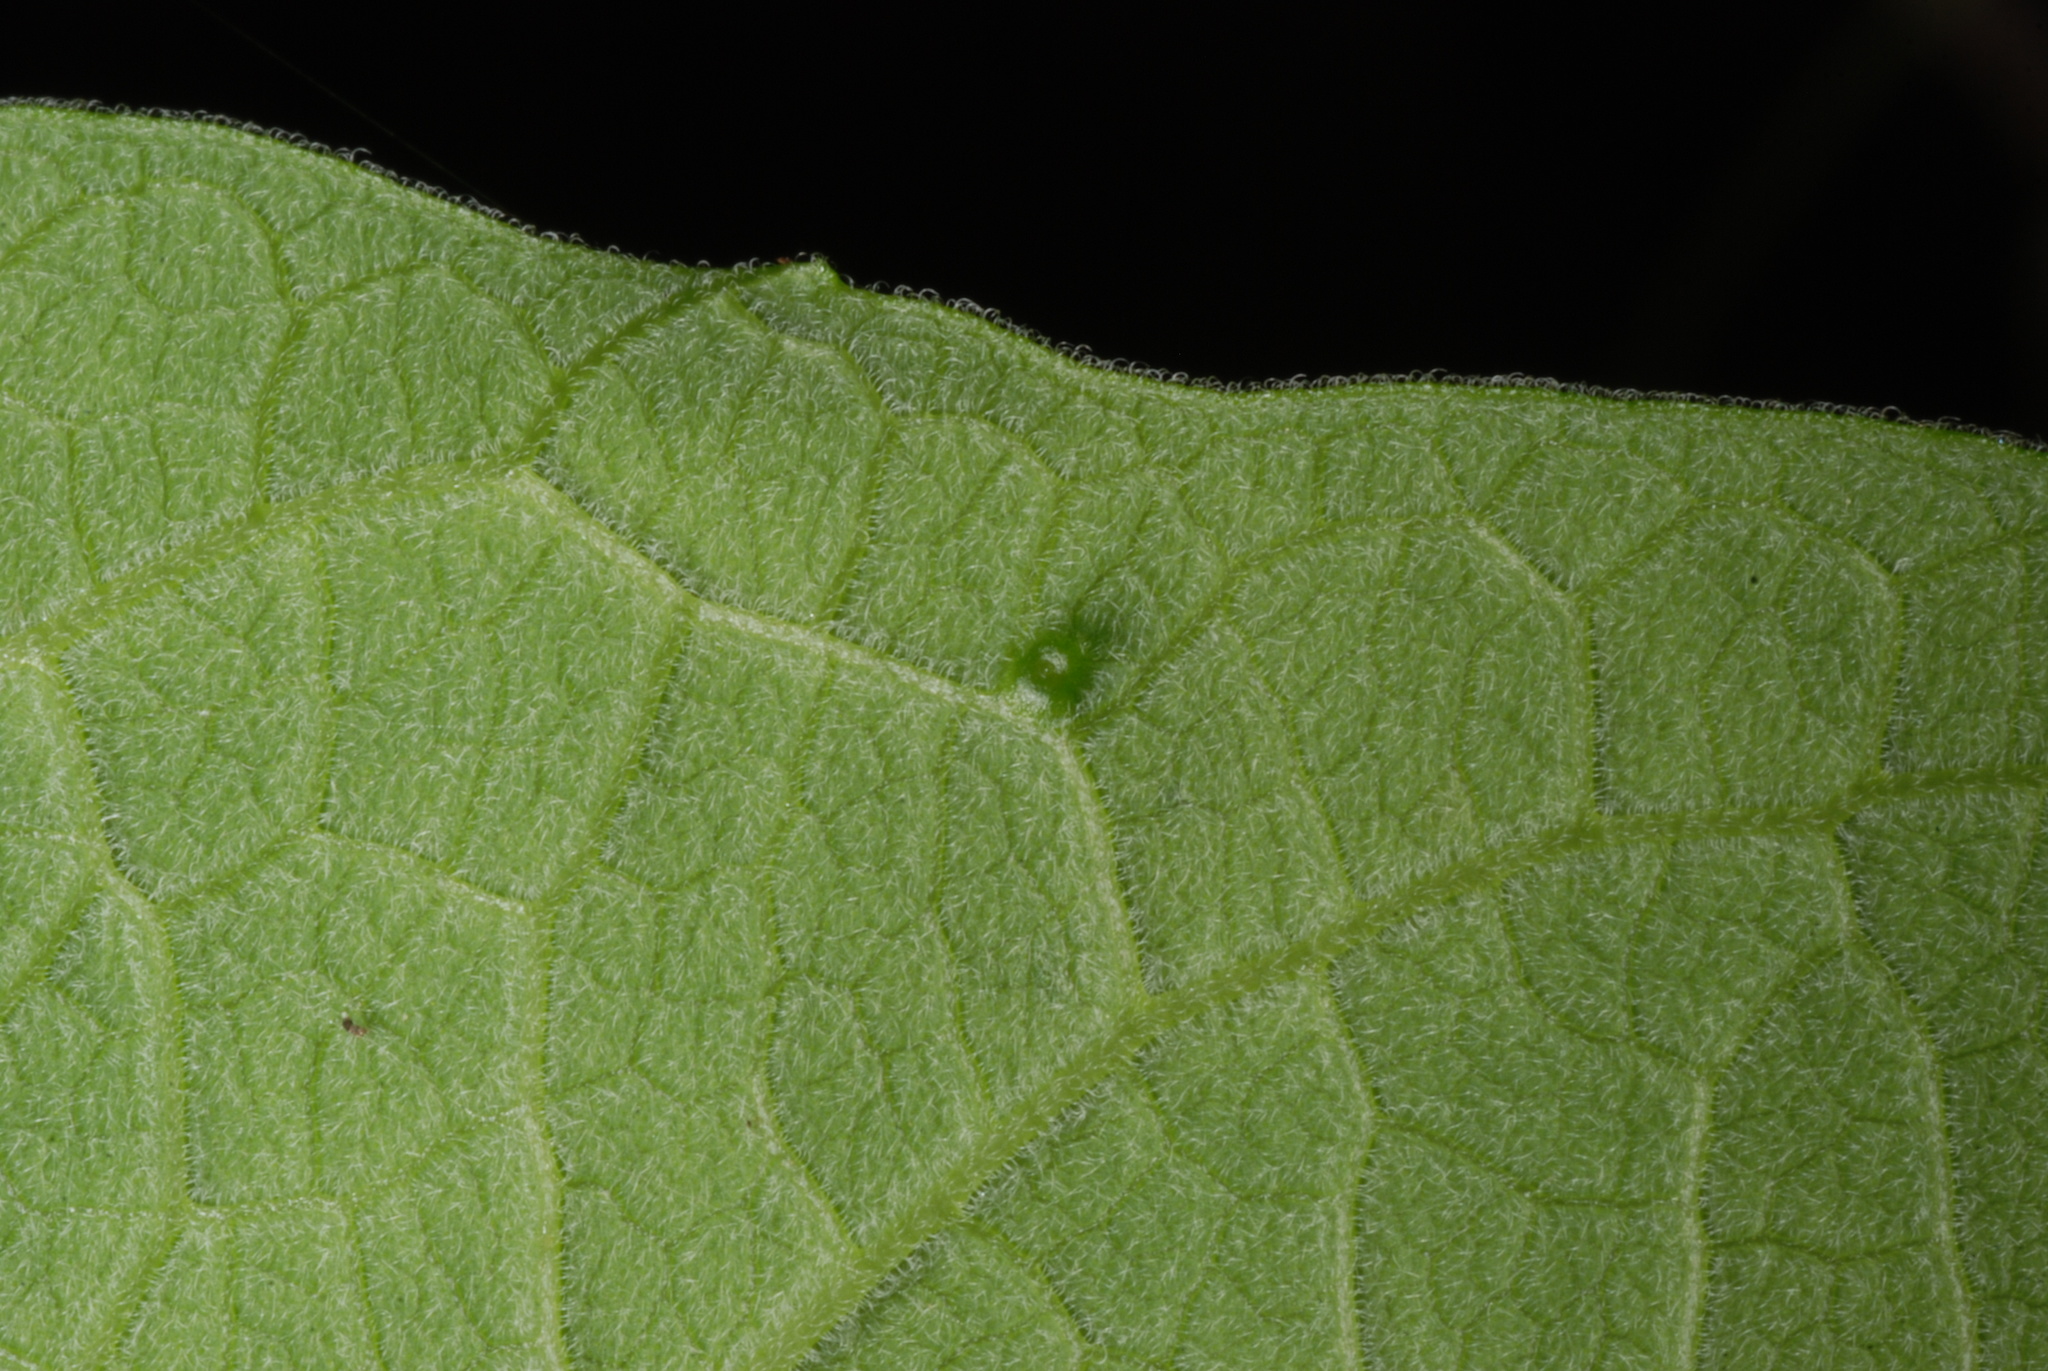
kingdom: Plantae
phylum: Tracheophyta
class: Magnoliopsida
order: Malpighiales
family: Passifloraceae
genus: Passiflora
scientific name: Passiflora multiflora
